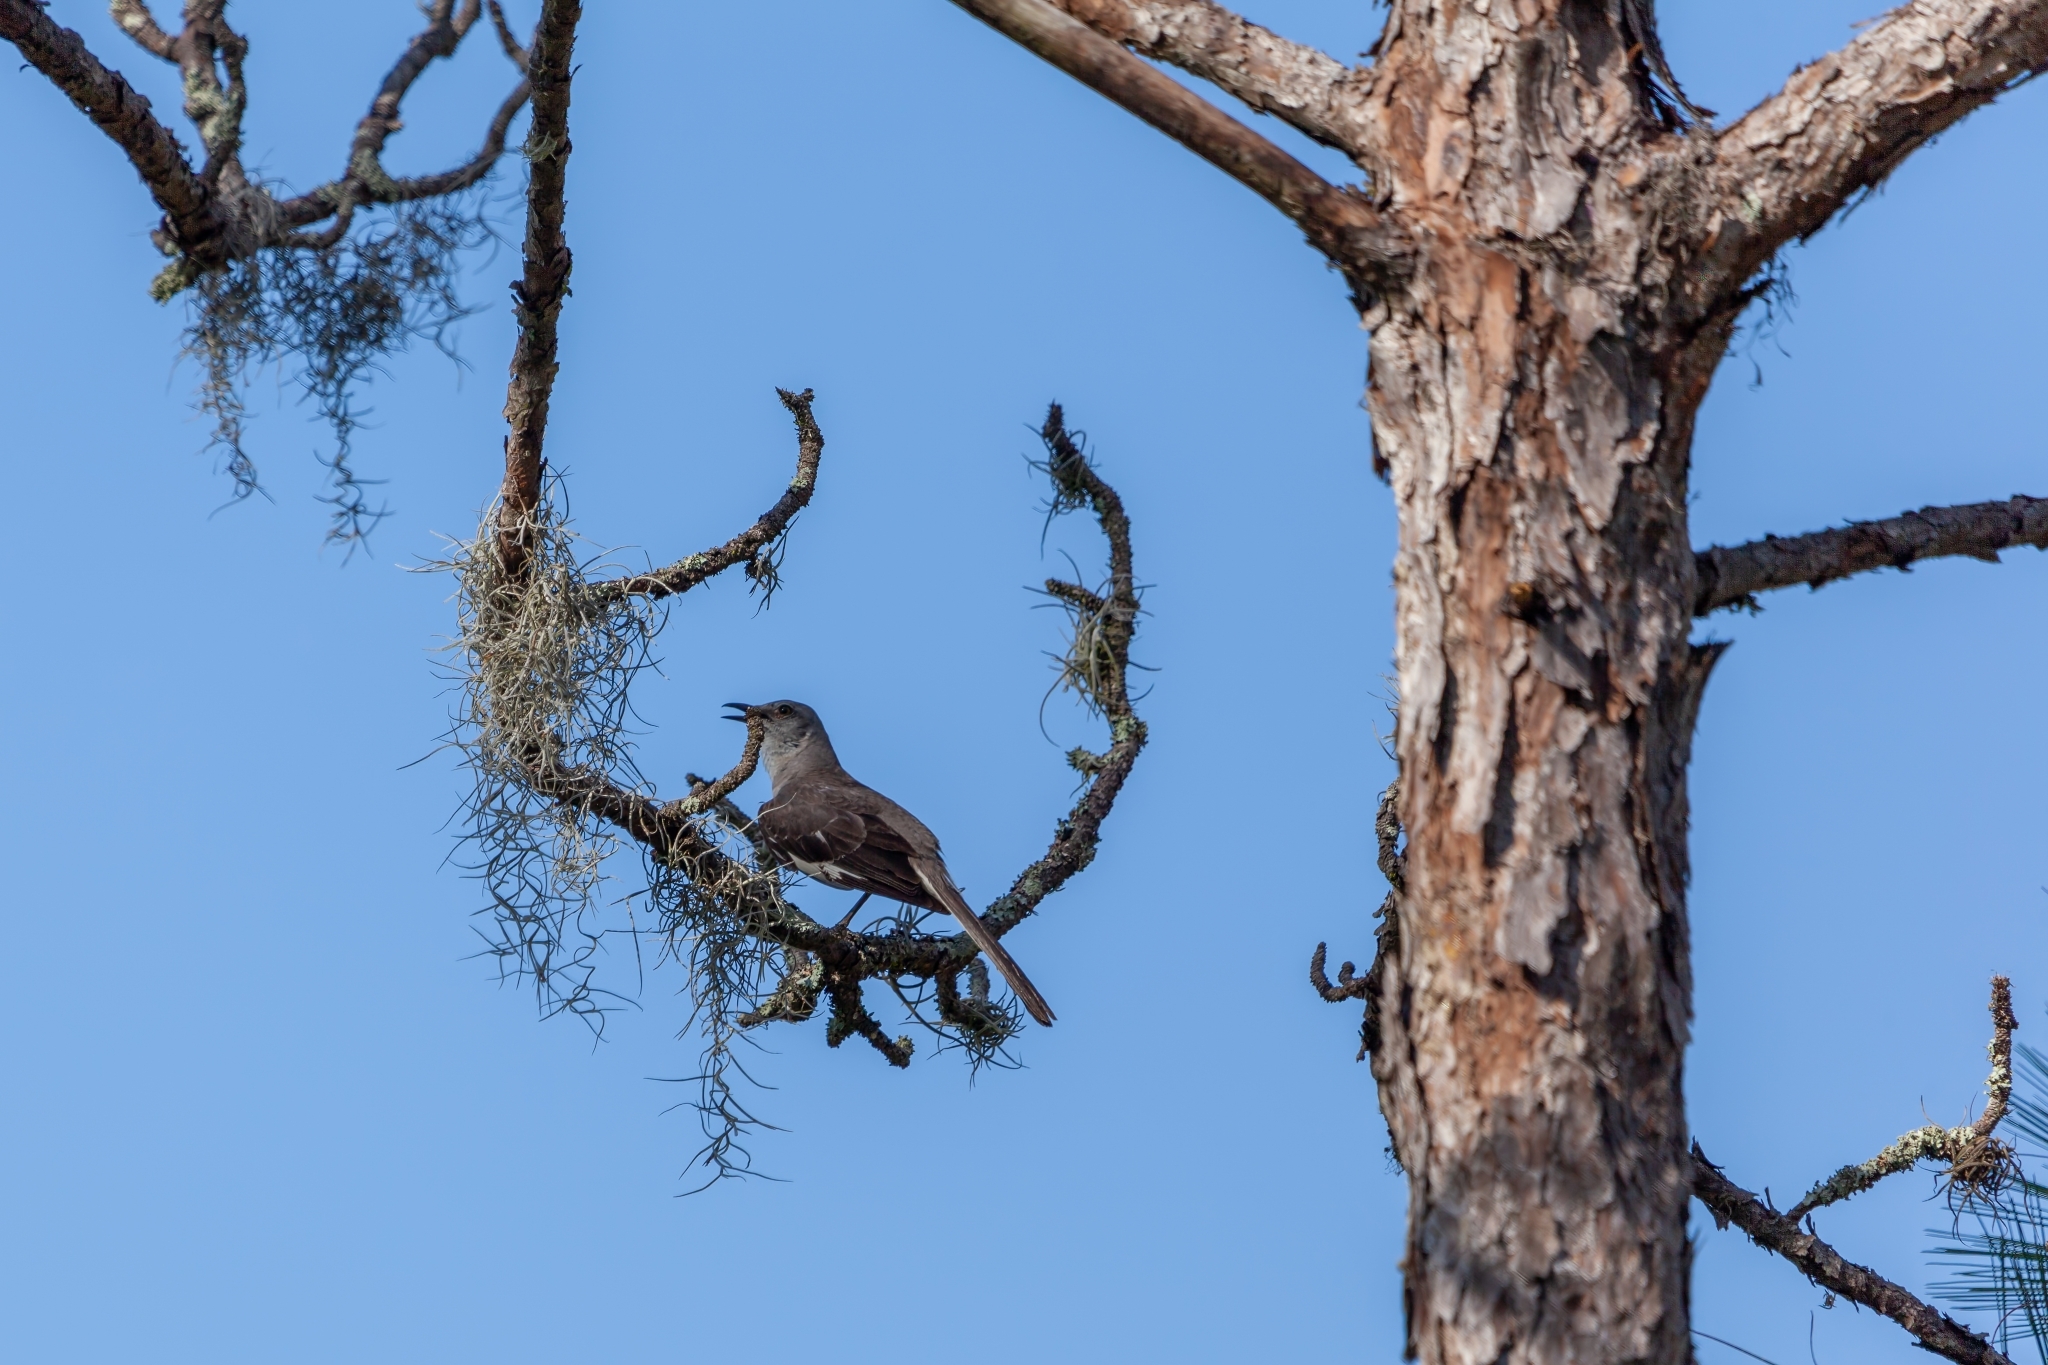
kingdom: Animalia
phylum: Chordata
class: Aves
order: Passeriformes
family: Mimidae
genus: Mimus
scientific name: Mimus polyglottos
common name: Northern mockingbird
